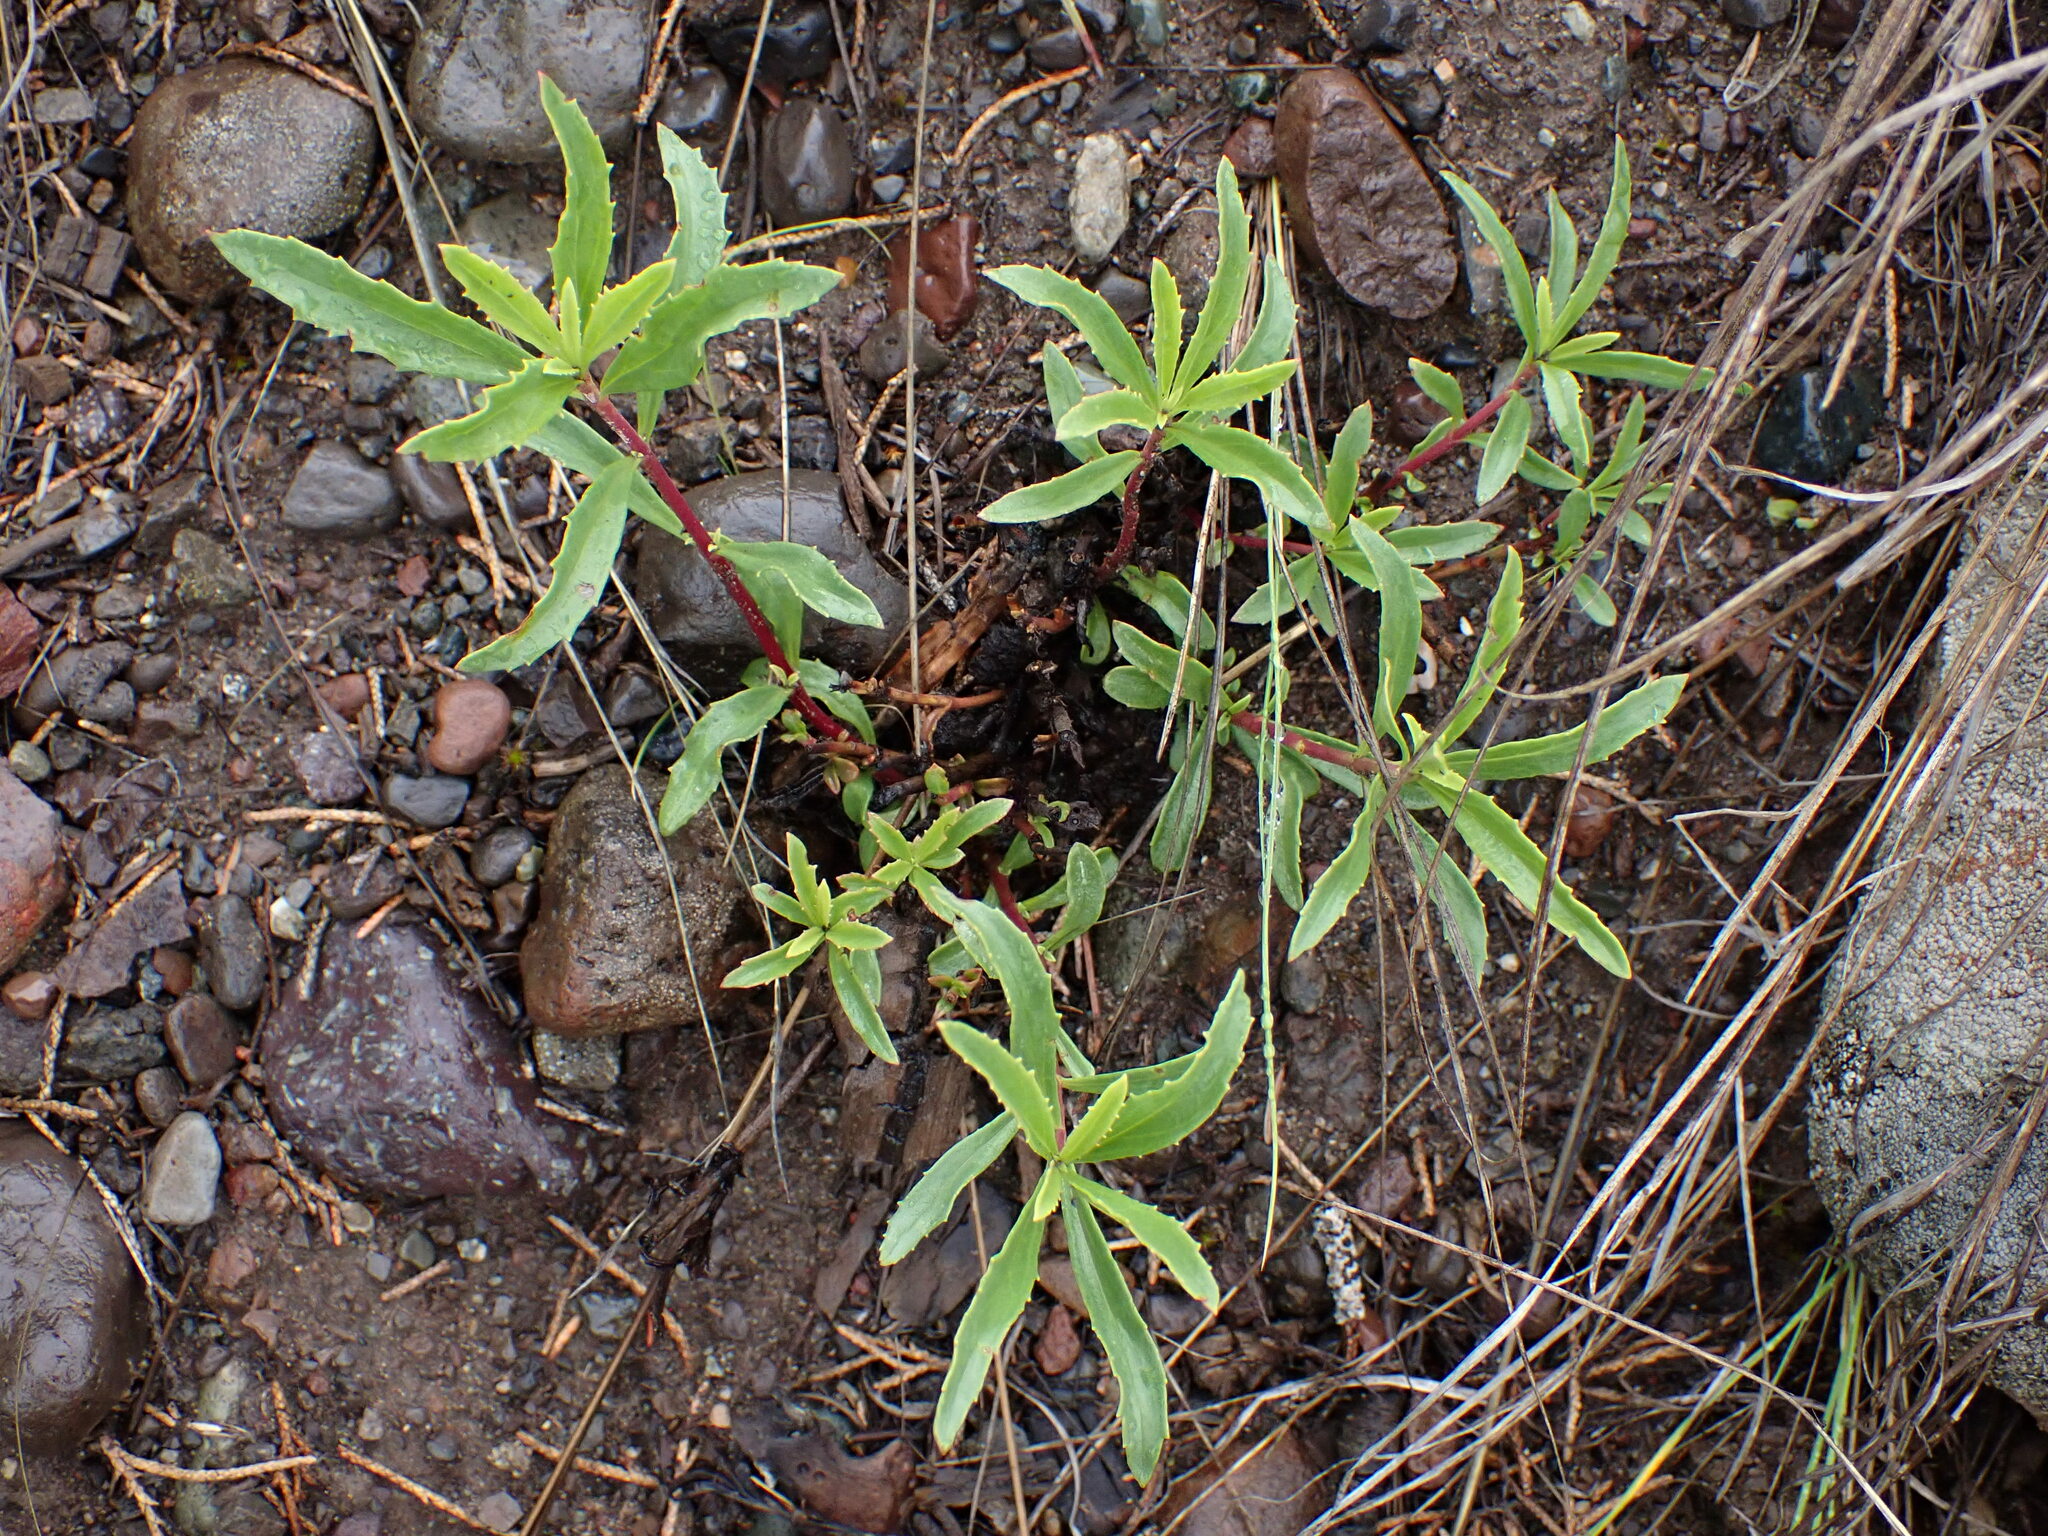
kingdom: Plantae
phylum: Tracheophyta
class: Magnoliopsida
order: Lamiales
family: Plantaginaceae
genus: Penstemon
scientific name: Penstemon fruticosus
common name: Bush penstemon
